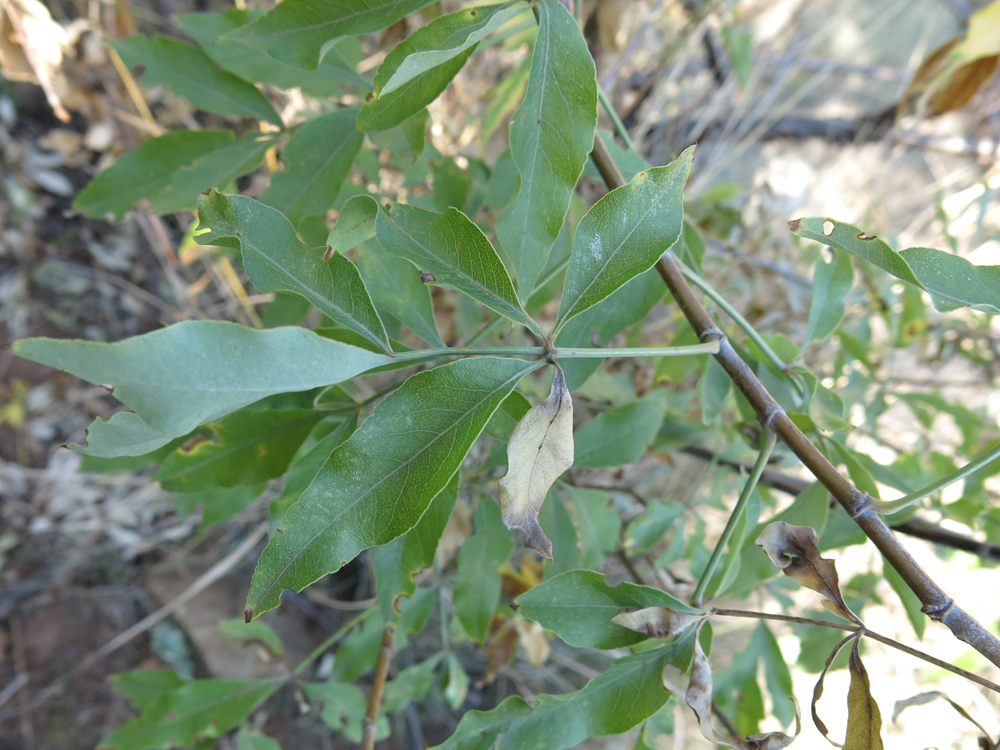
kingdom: Plantae
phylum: Tracheophyta
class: Magnoliopsida
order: Apiales
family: Apiaceae
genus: Heteromorpha
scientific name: Heteromorpha arborescens
